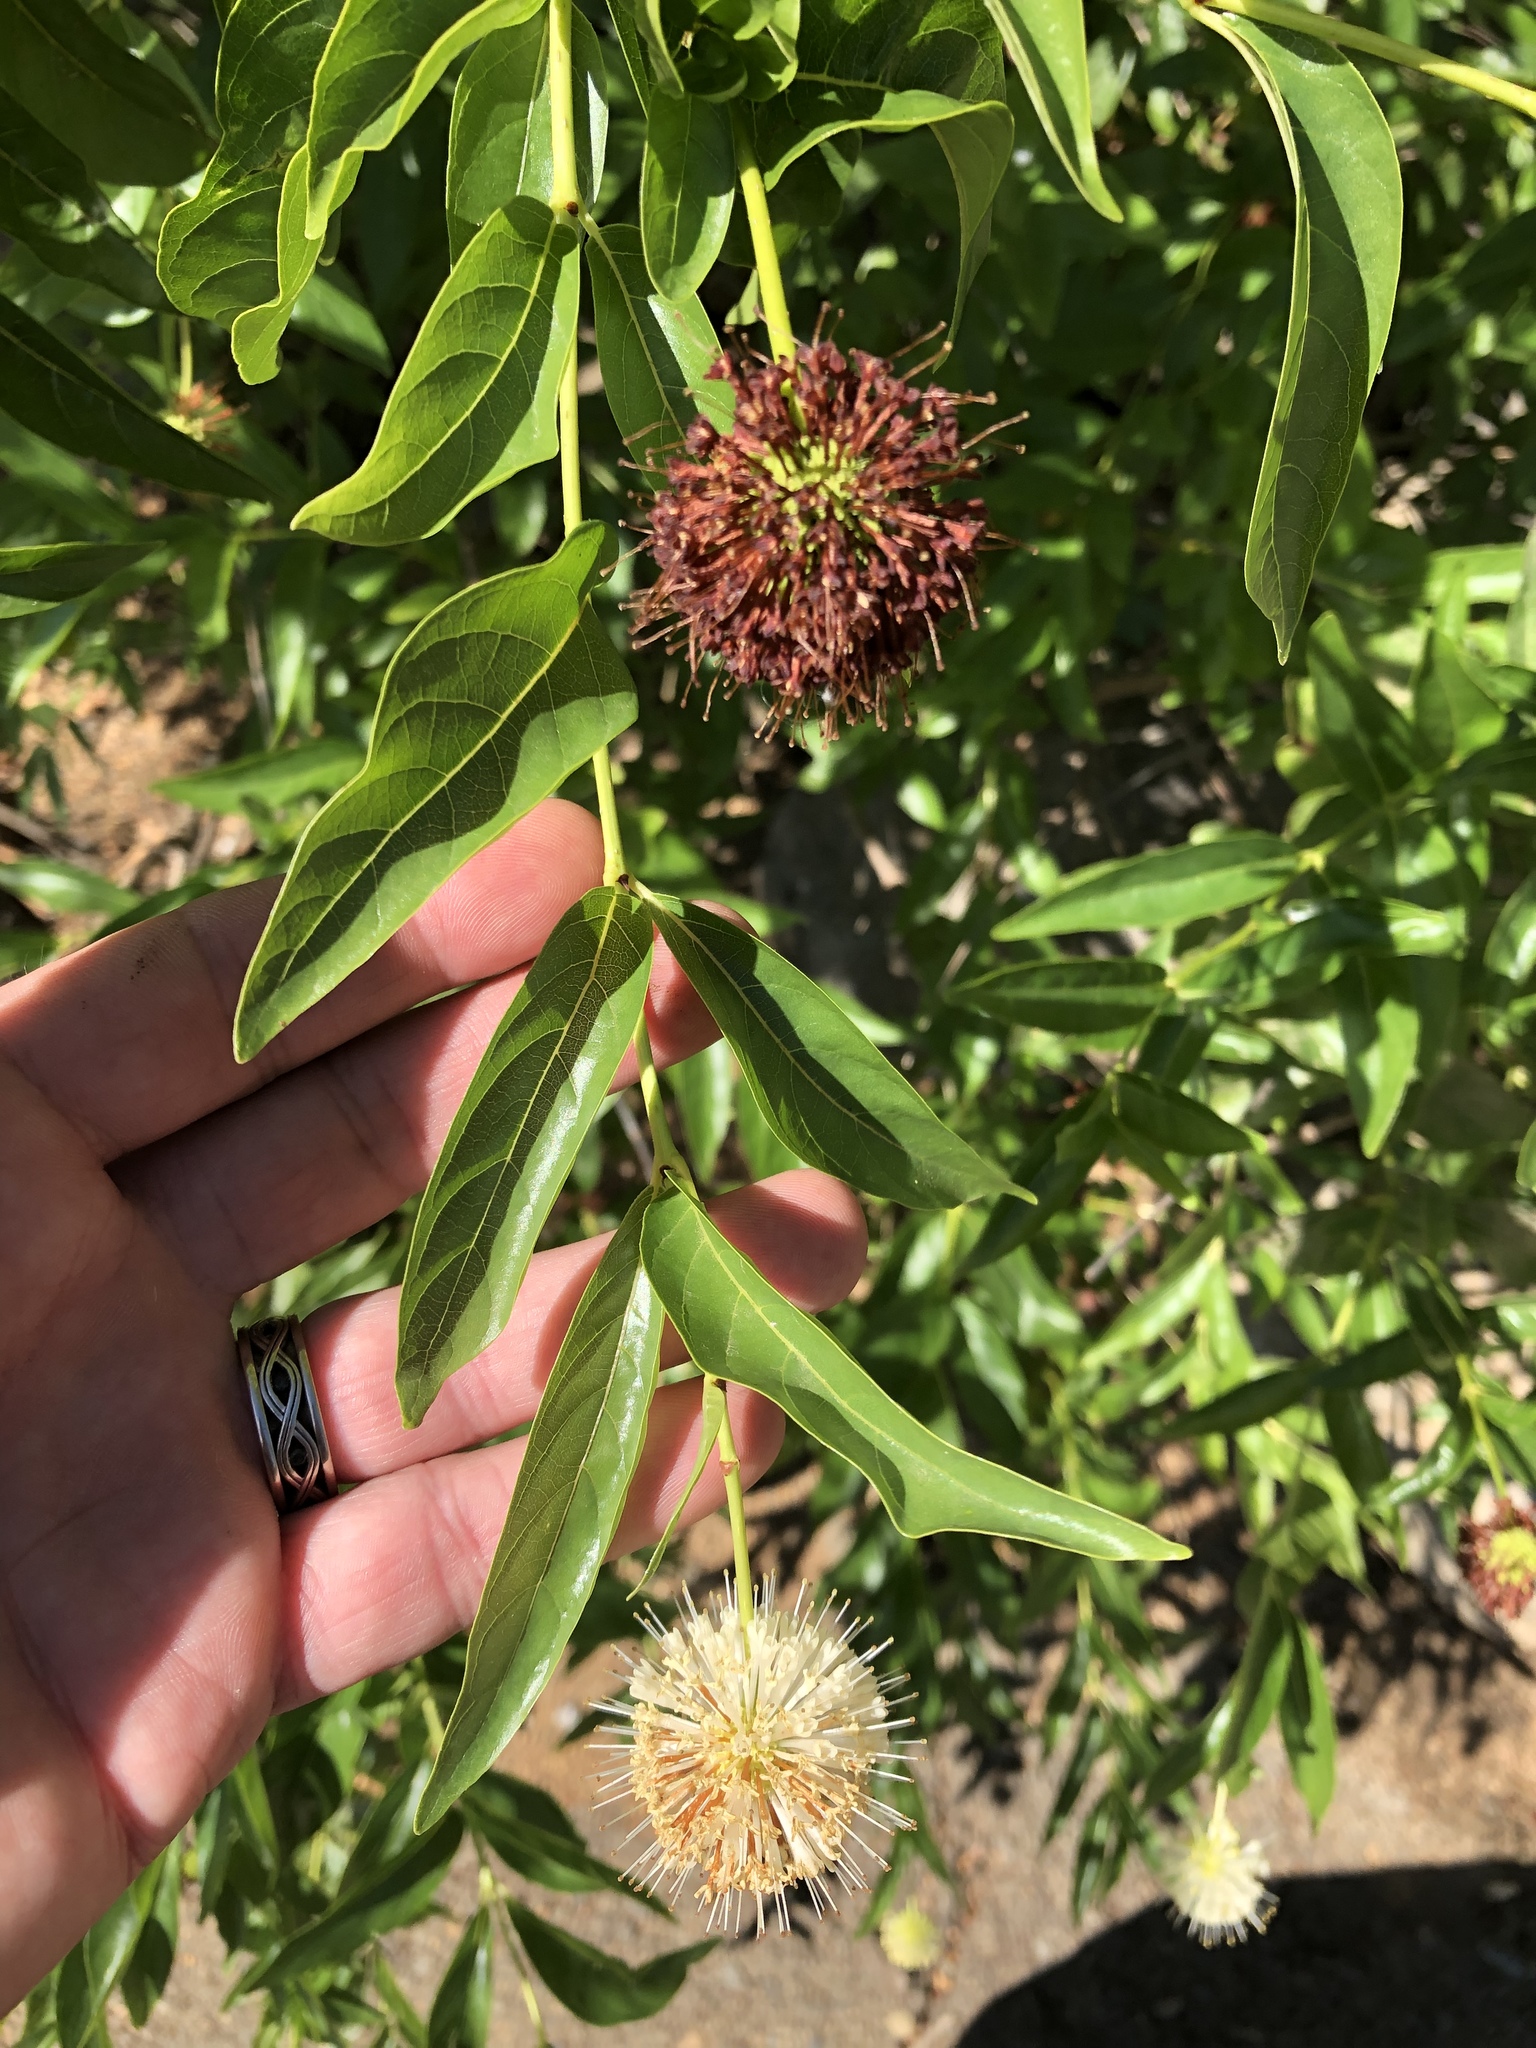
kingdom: Plantae
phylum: Tracheophyta
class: Magnoliopsida
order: Gentianales
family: Rubiaceae
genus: Cephalanthus
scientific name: Cephalanthus occidentalis
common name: Button-willow
